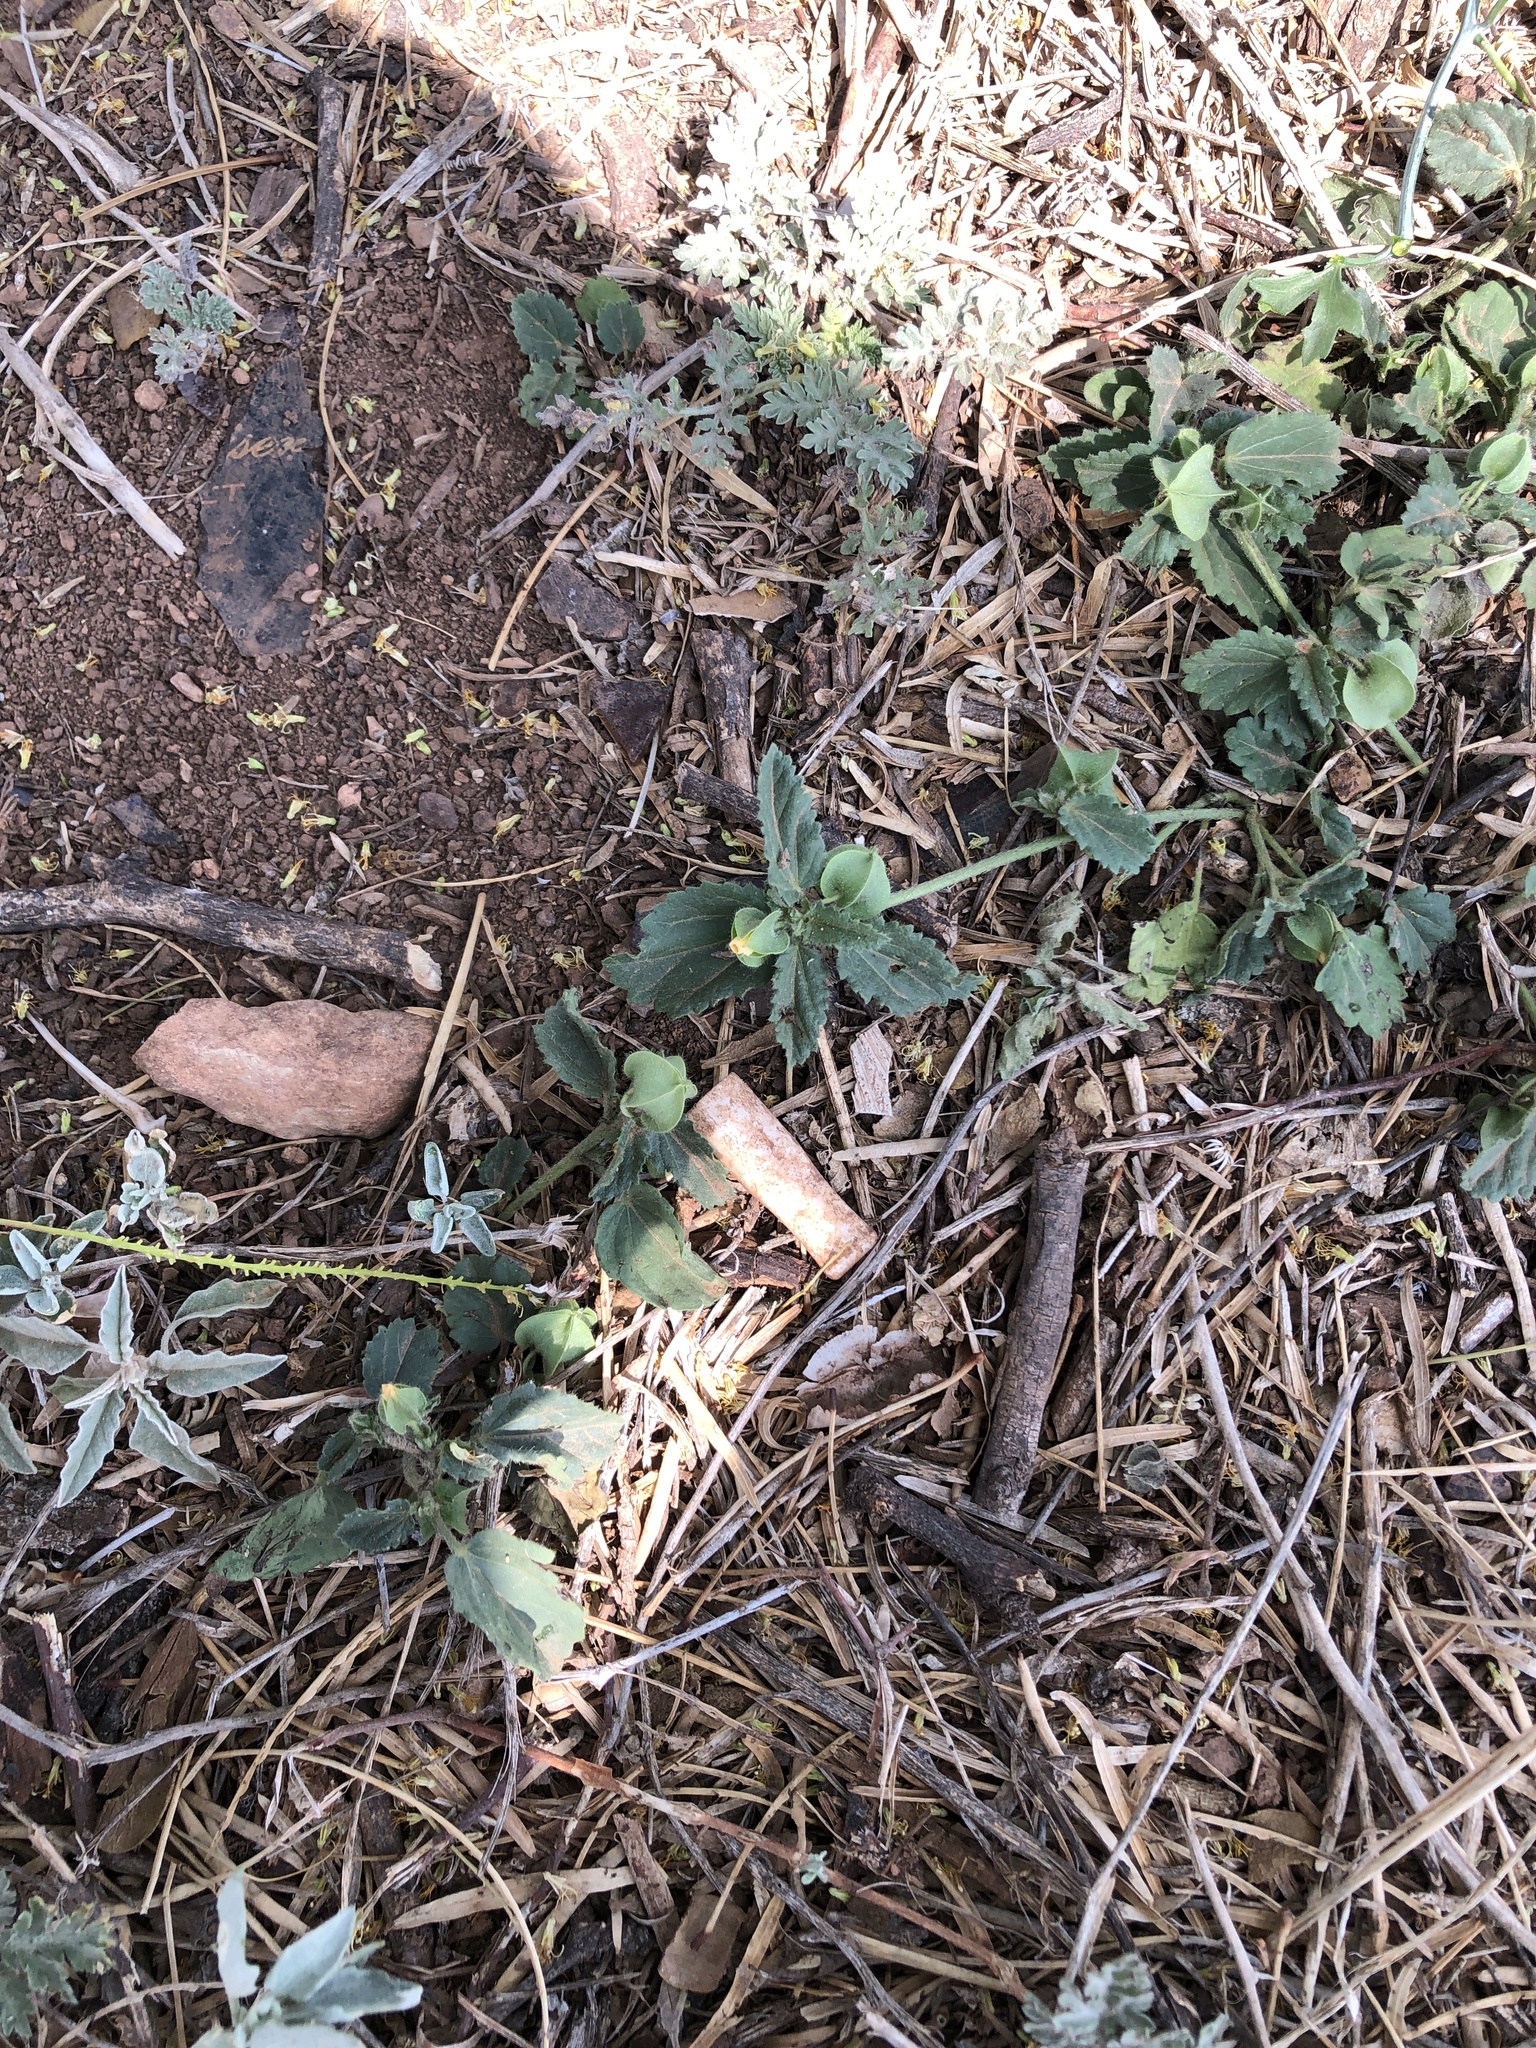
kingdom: Plantae
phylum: Tracheophyta
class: Magnoliopsida
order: Malvales
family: Malvaceae
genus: Rhynchosida
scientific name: Rhynchosida physocalyx
